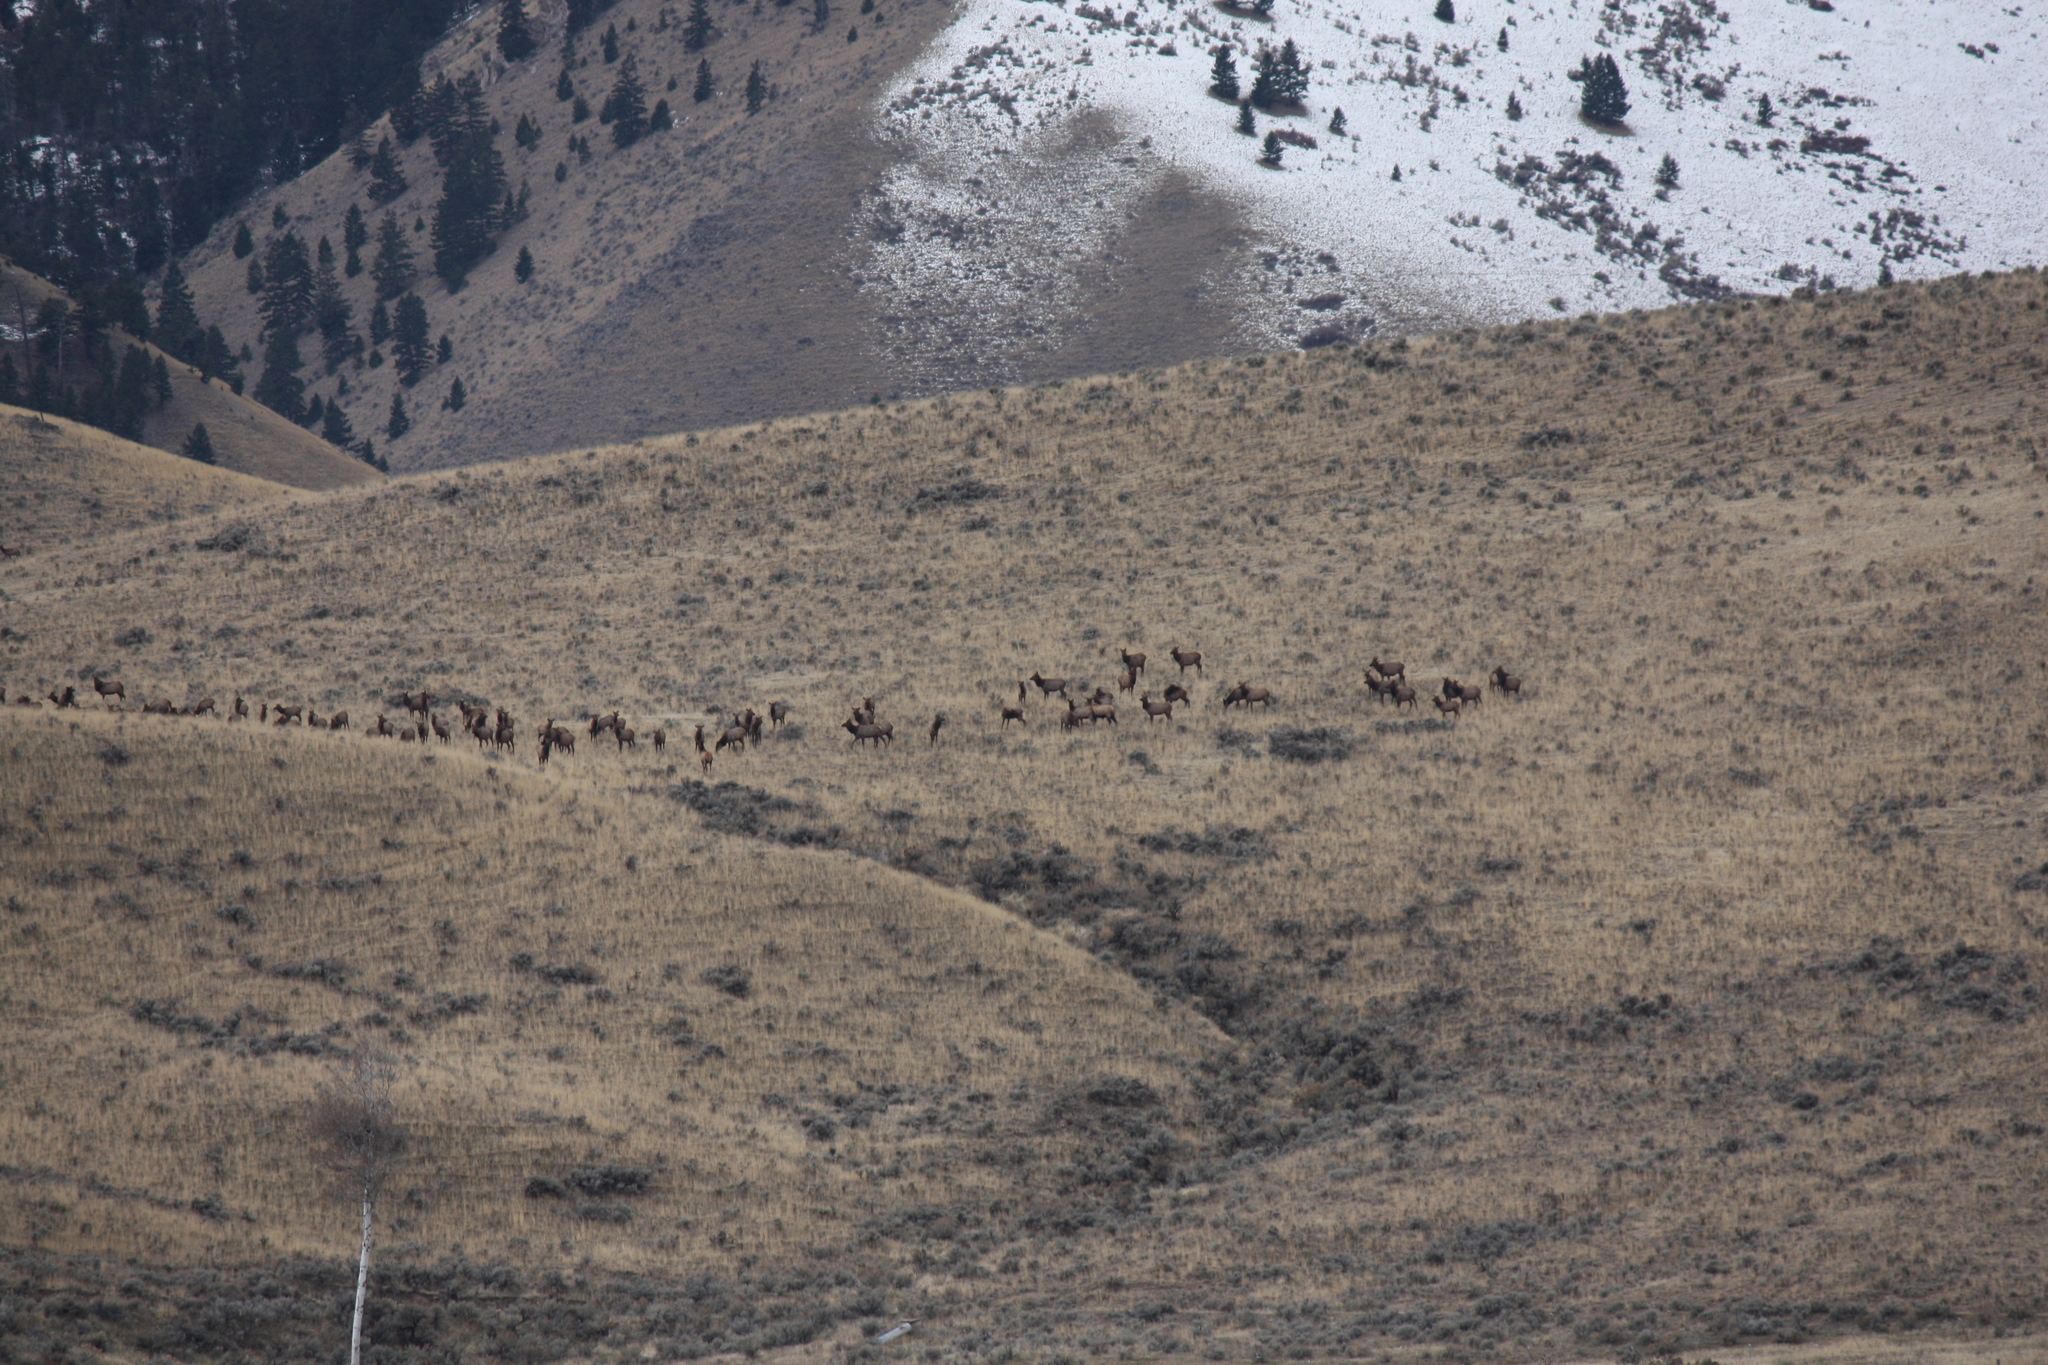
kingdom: Animalia
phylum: Chordata
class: Mammalia
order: Artiodactyla
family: Cervidae
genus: Cervus
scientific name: Cervus elaphus
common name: Red deer
